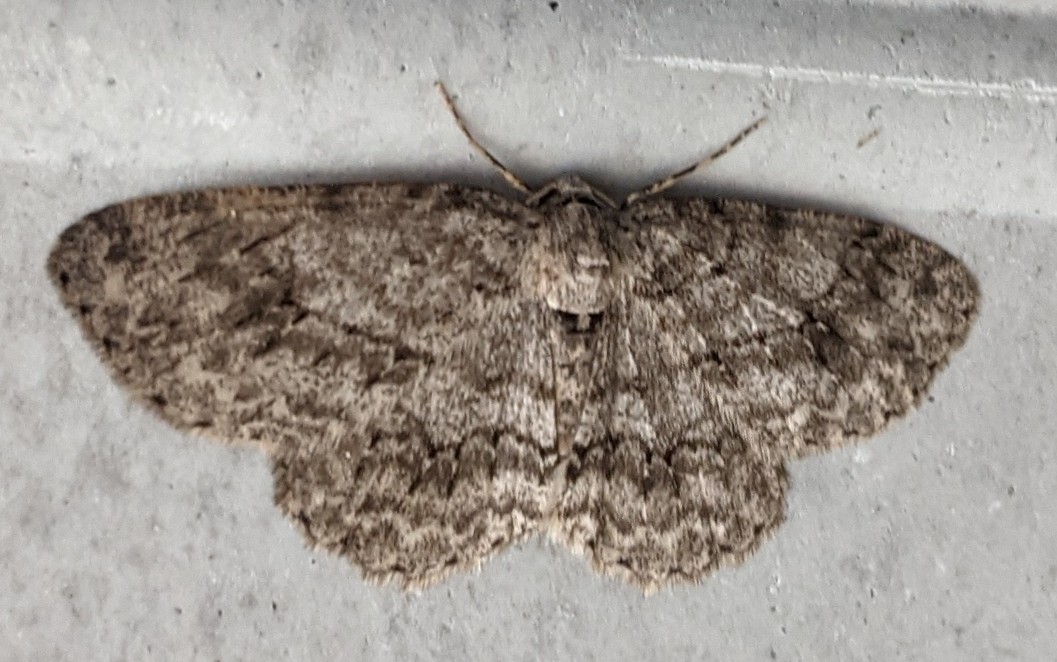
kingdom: Animalia
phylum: Arthropoda
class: Insecta
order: Lepidoptera
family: Geometridae
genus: Ectropis
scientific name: Ectropis crepuscularia
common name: Engrailed
